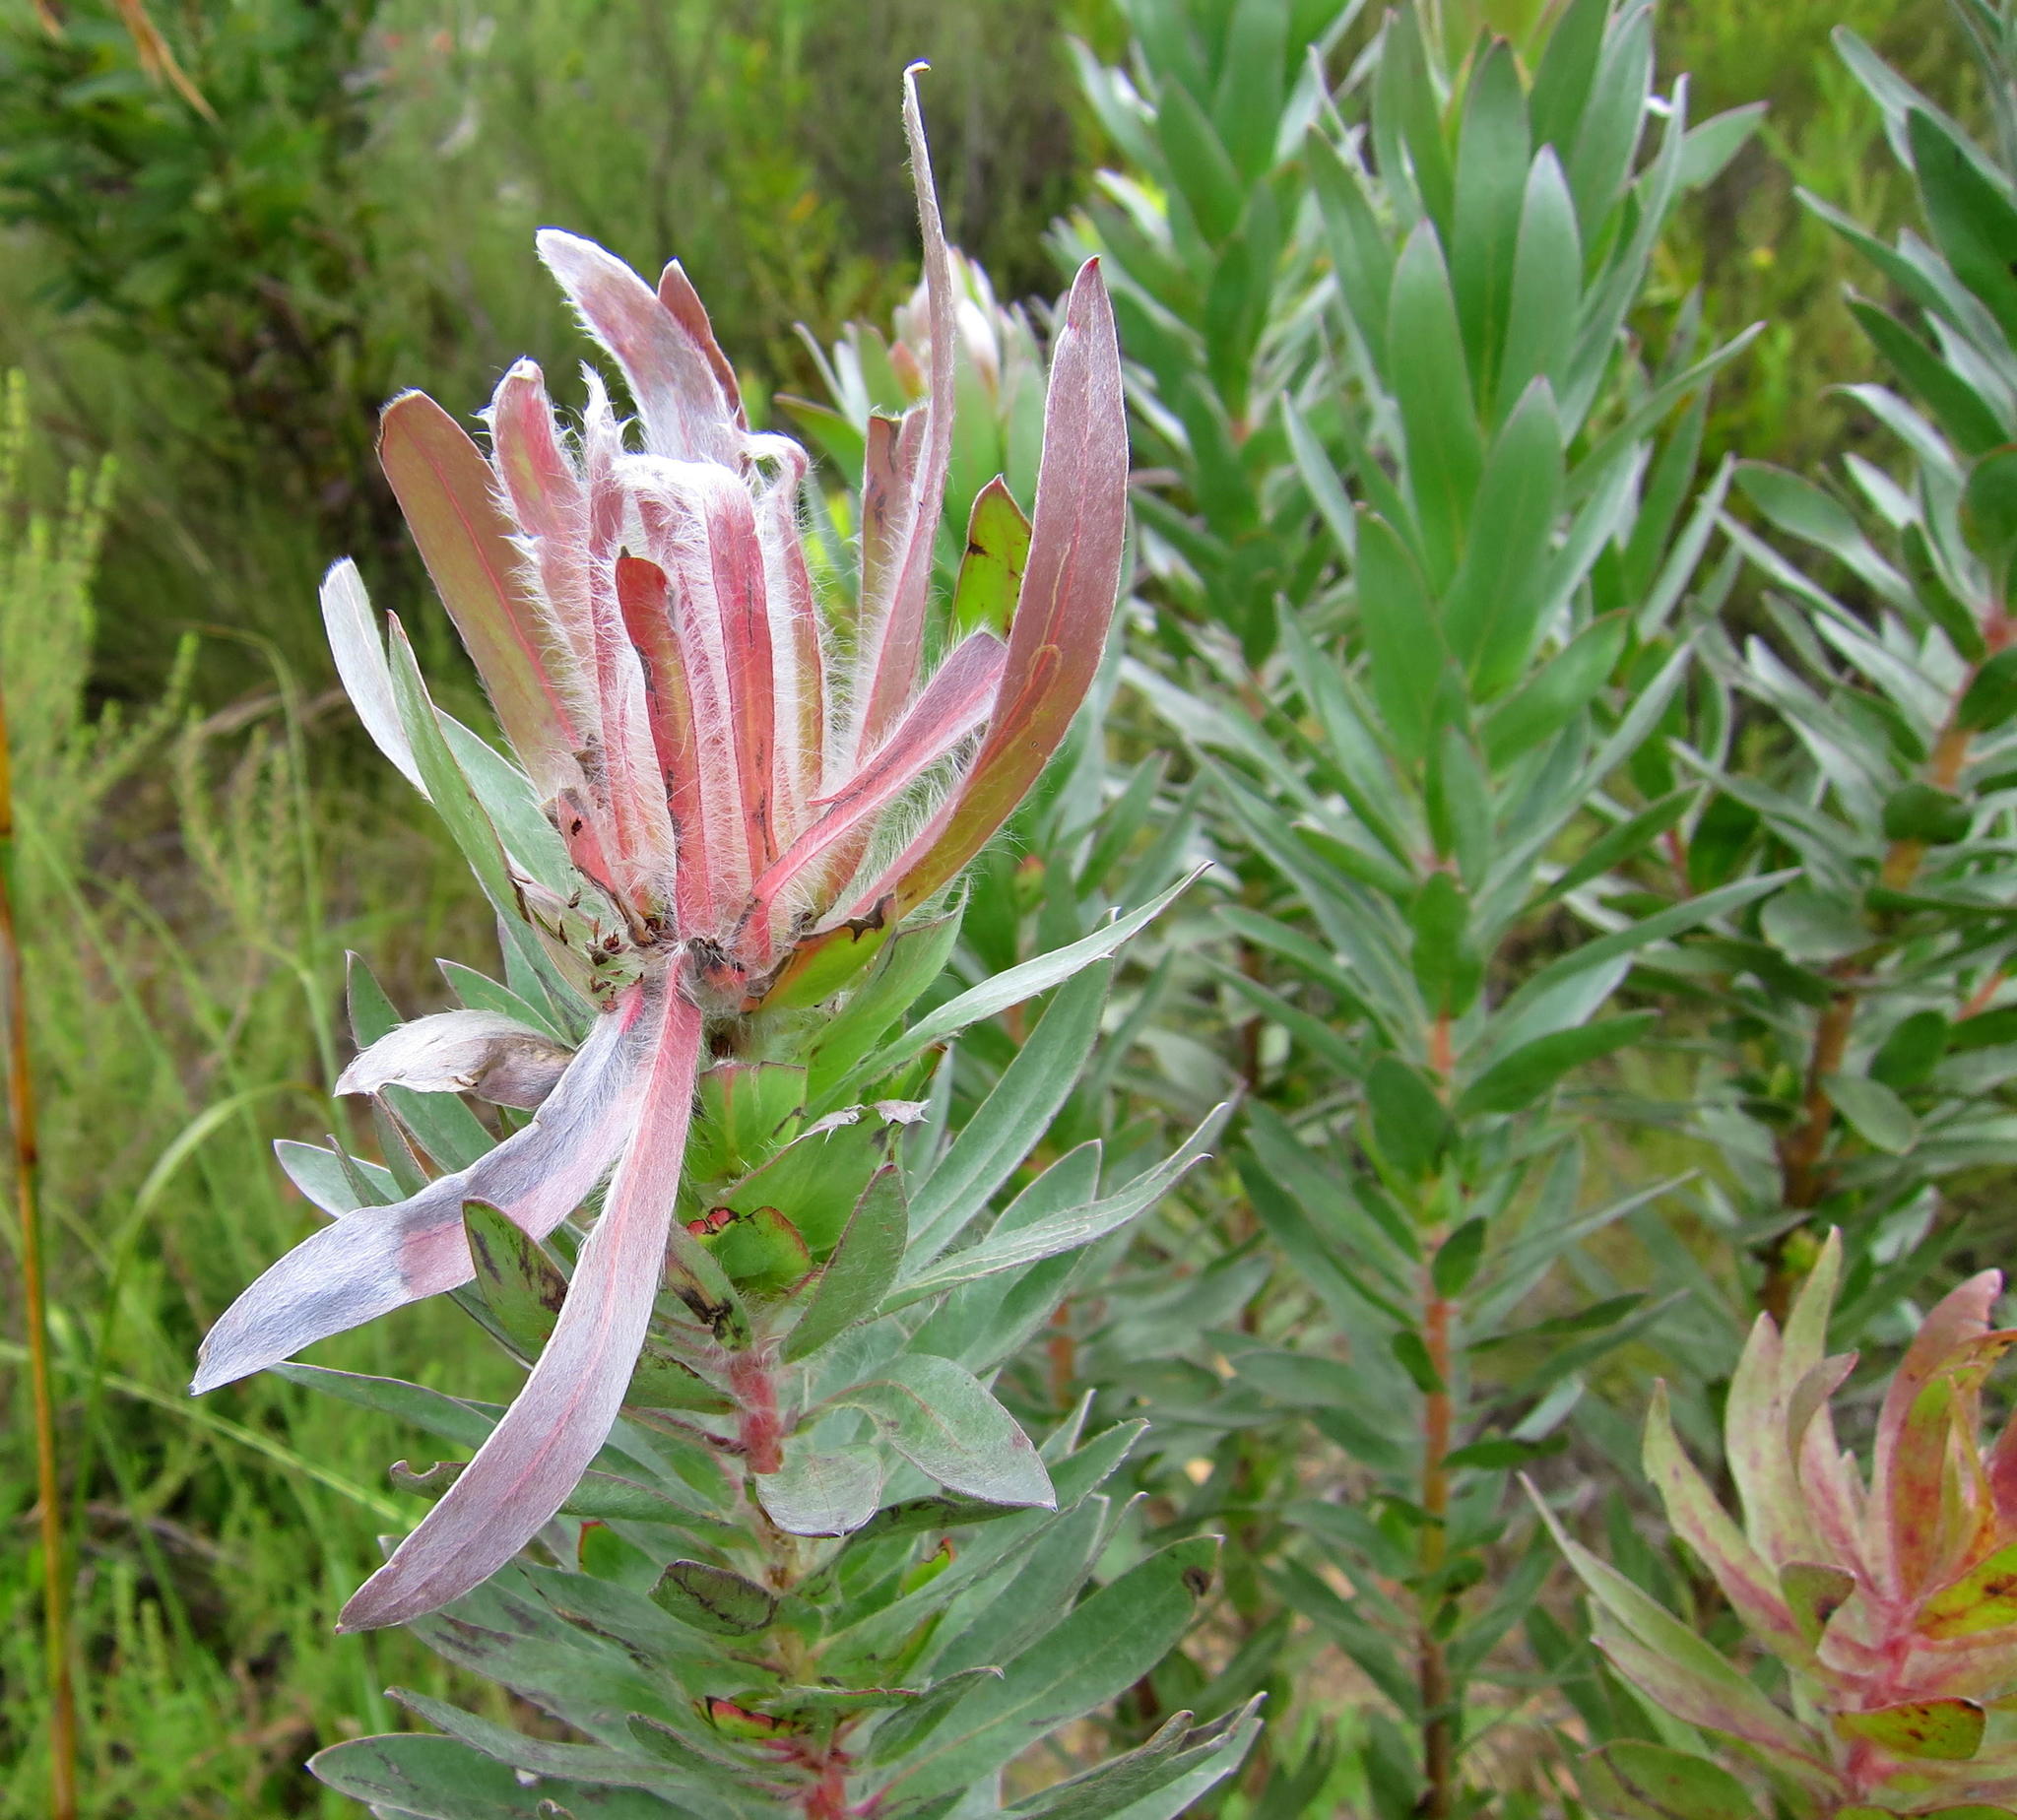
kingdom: Plantae
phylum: Tracheophyta
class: Magnoliopsida
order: Proteales
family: Proteaceae
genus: Protea
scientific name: Protea coronata
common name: Green sugarbush
